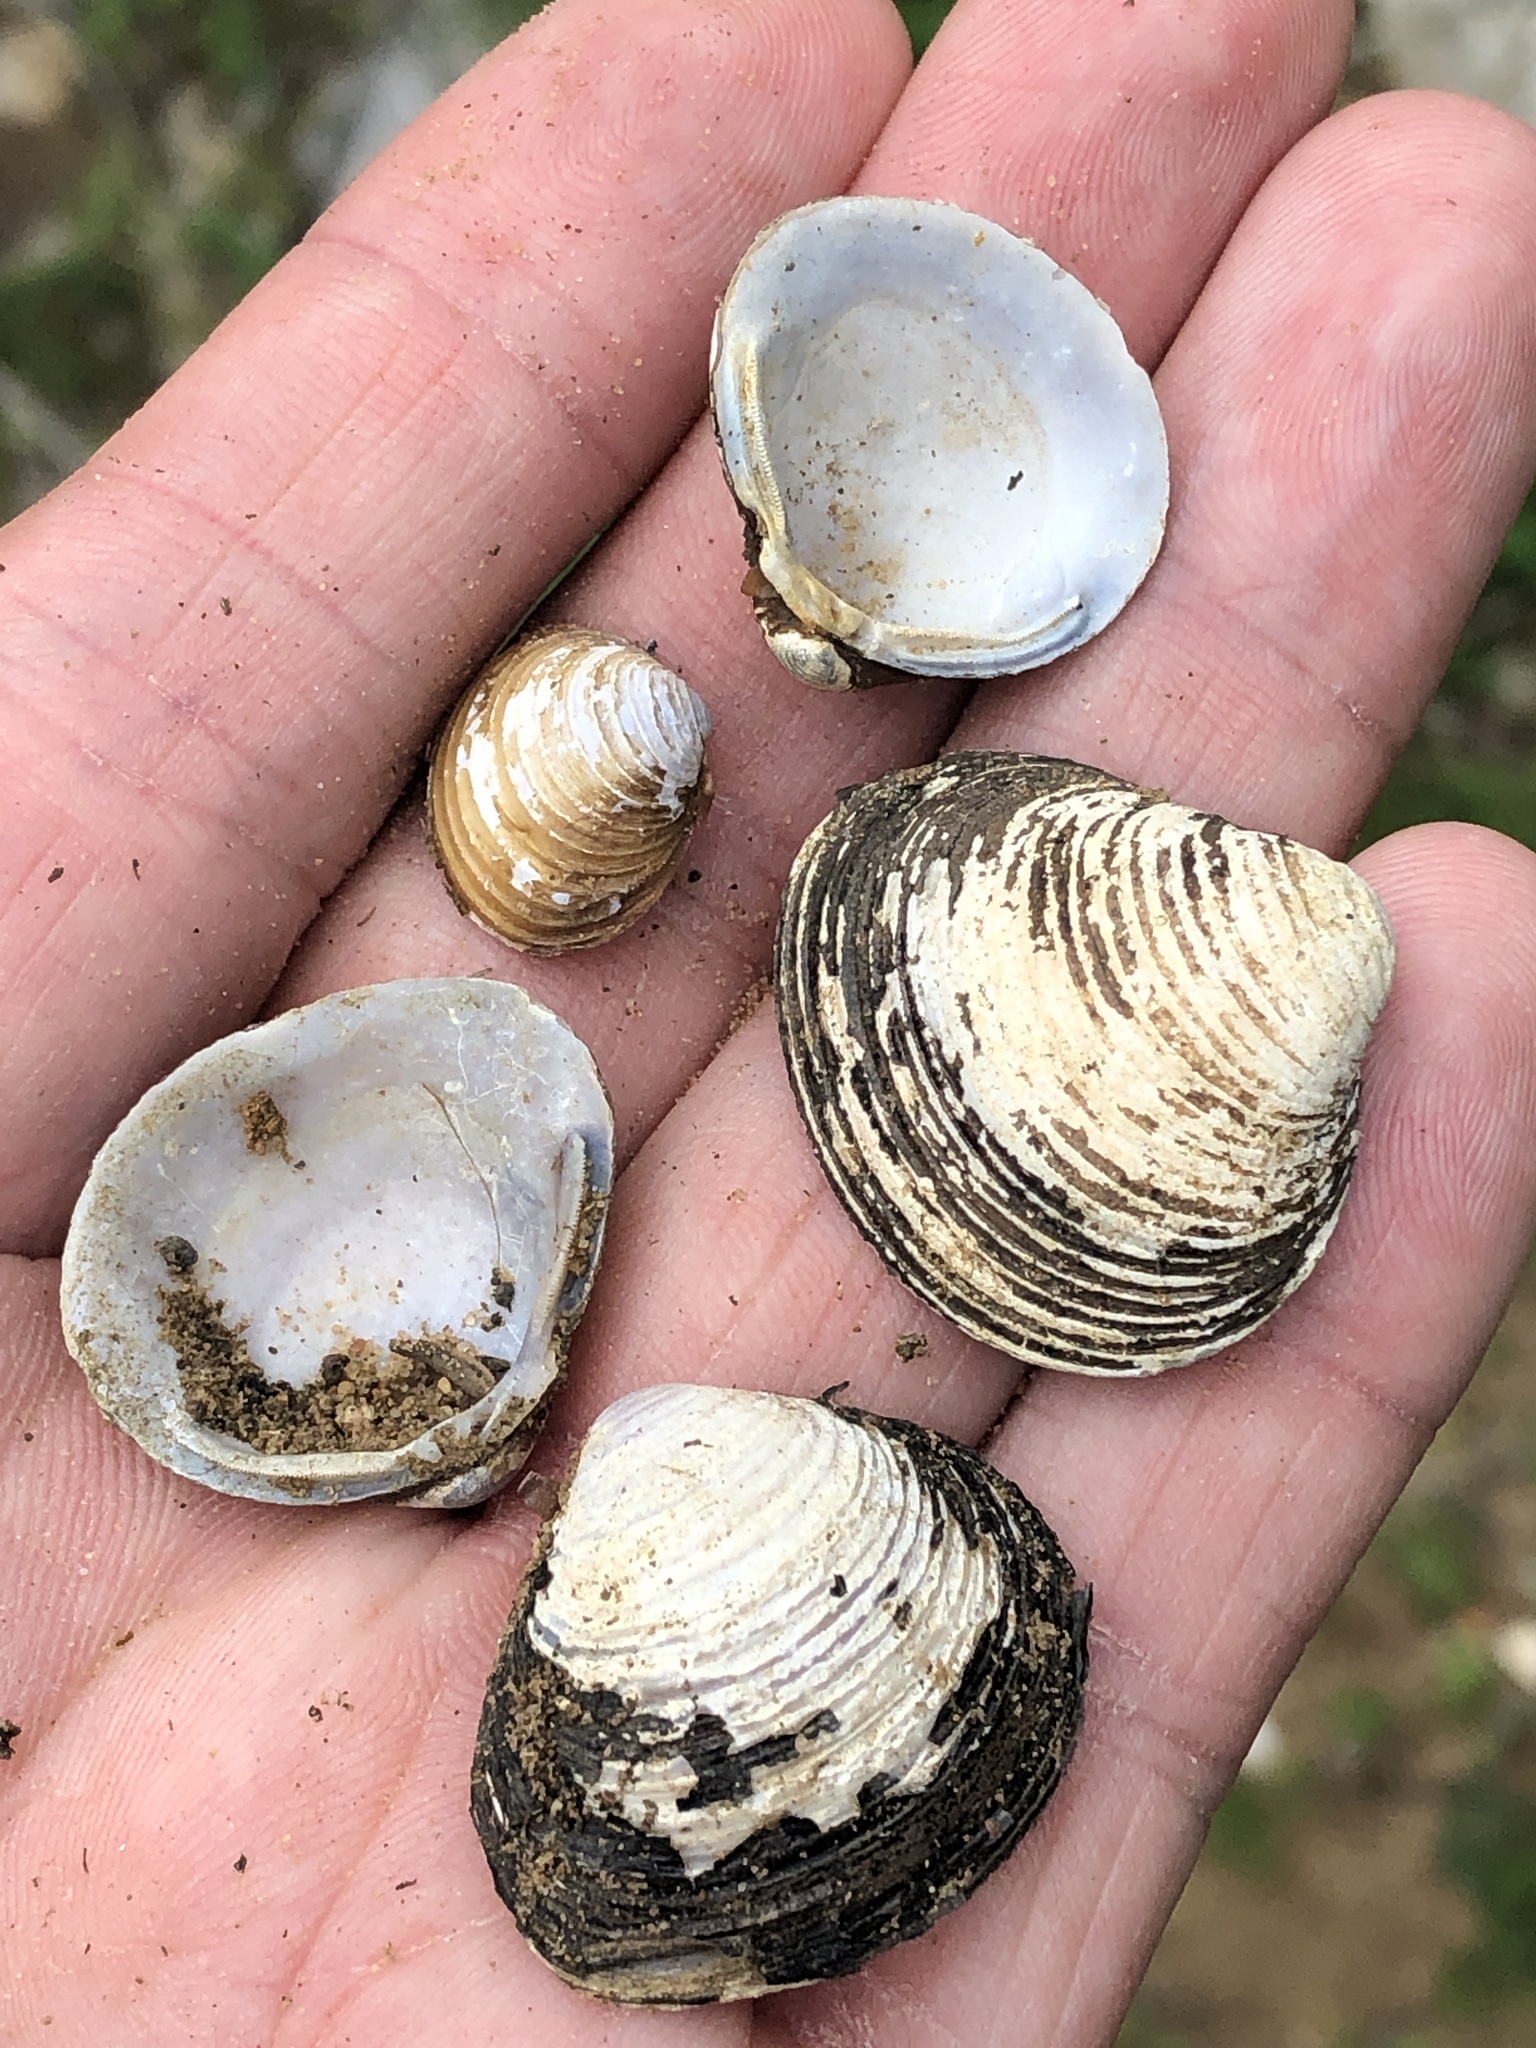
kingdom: Animalia
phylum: Mollusca
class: Bivalvia
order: Venerida
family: Cyrenidae
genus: Corbicula
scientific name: Corbicula fluminea
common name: Asian clam
